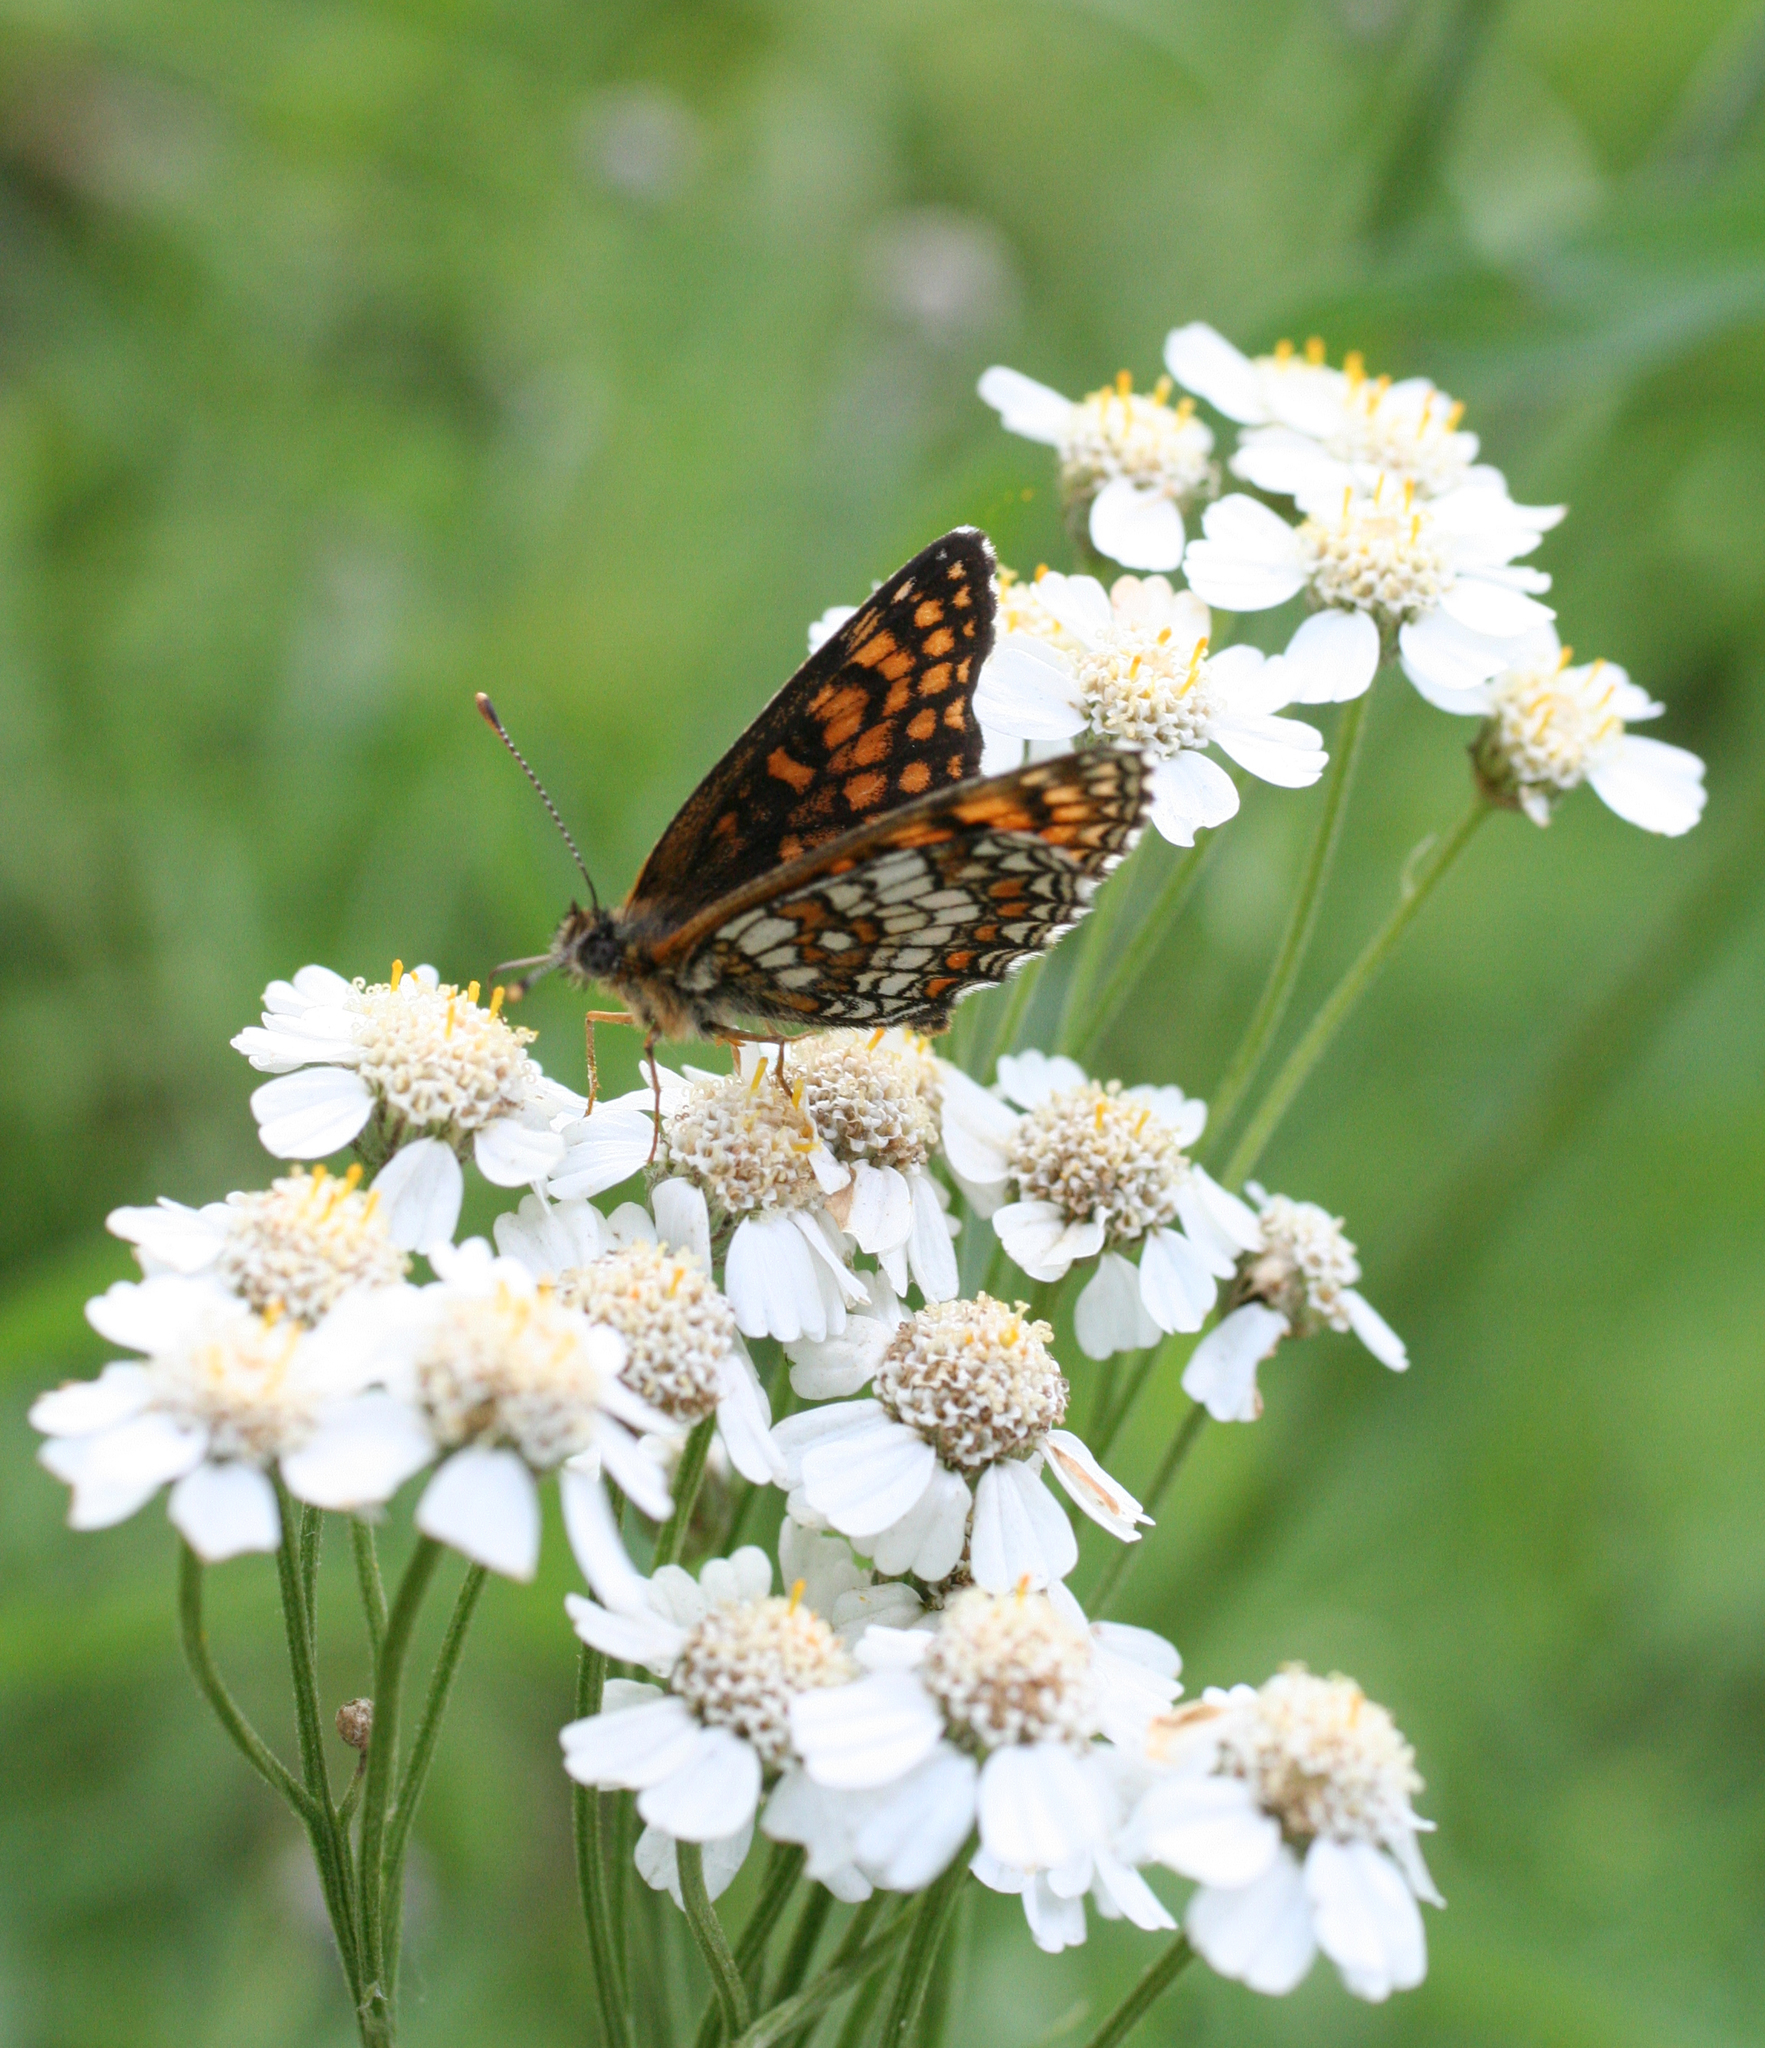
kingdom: Animalia
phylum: Arthropoda
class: Insecta
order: Lepidoptera
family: Nymphalidae
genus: Neptis
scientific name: Neptis rivularis
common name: Hungarian glider
